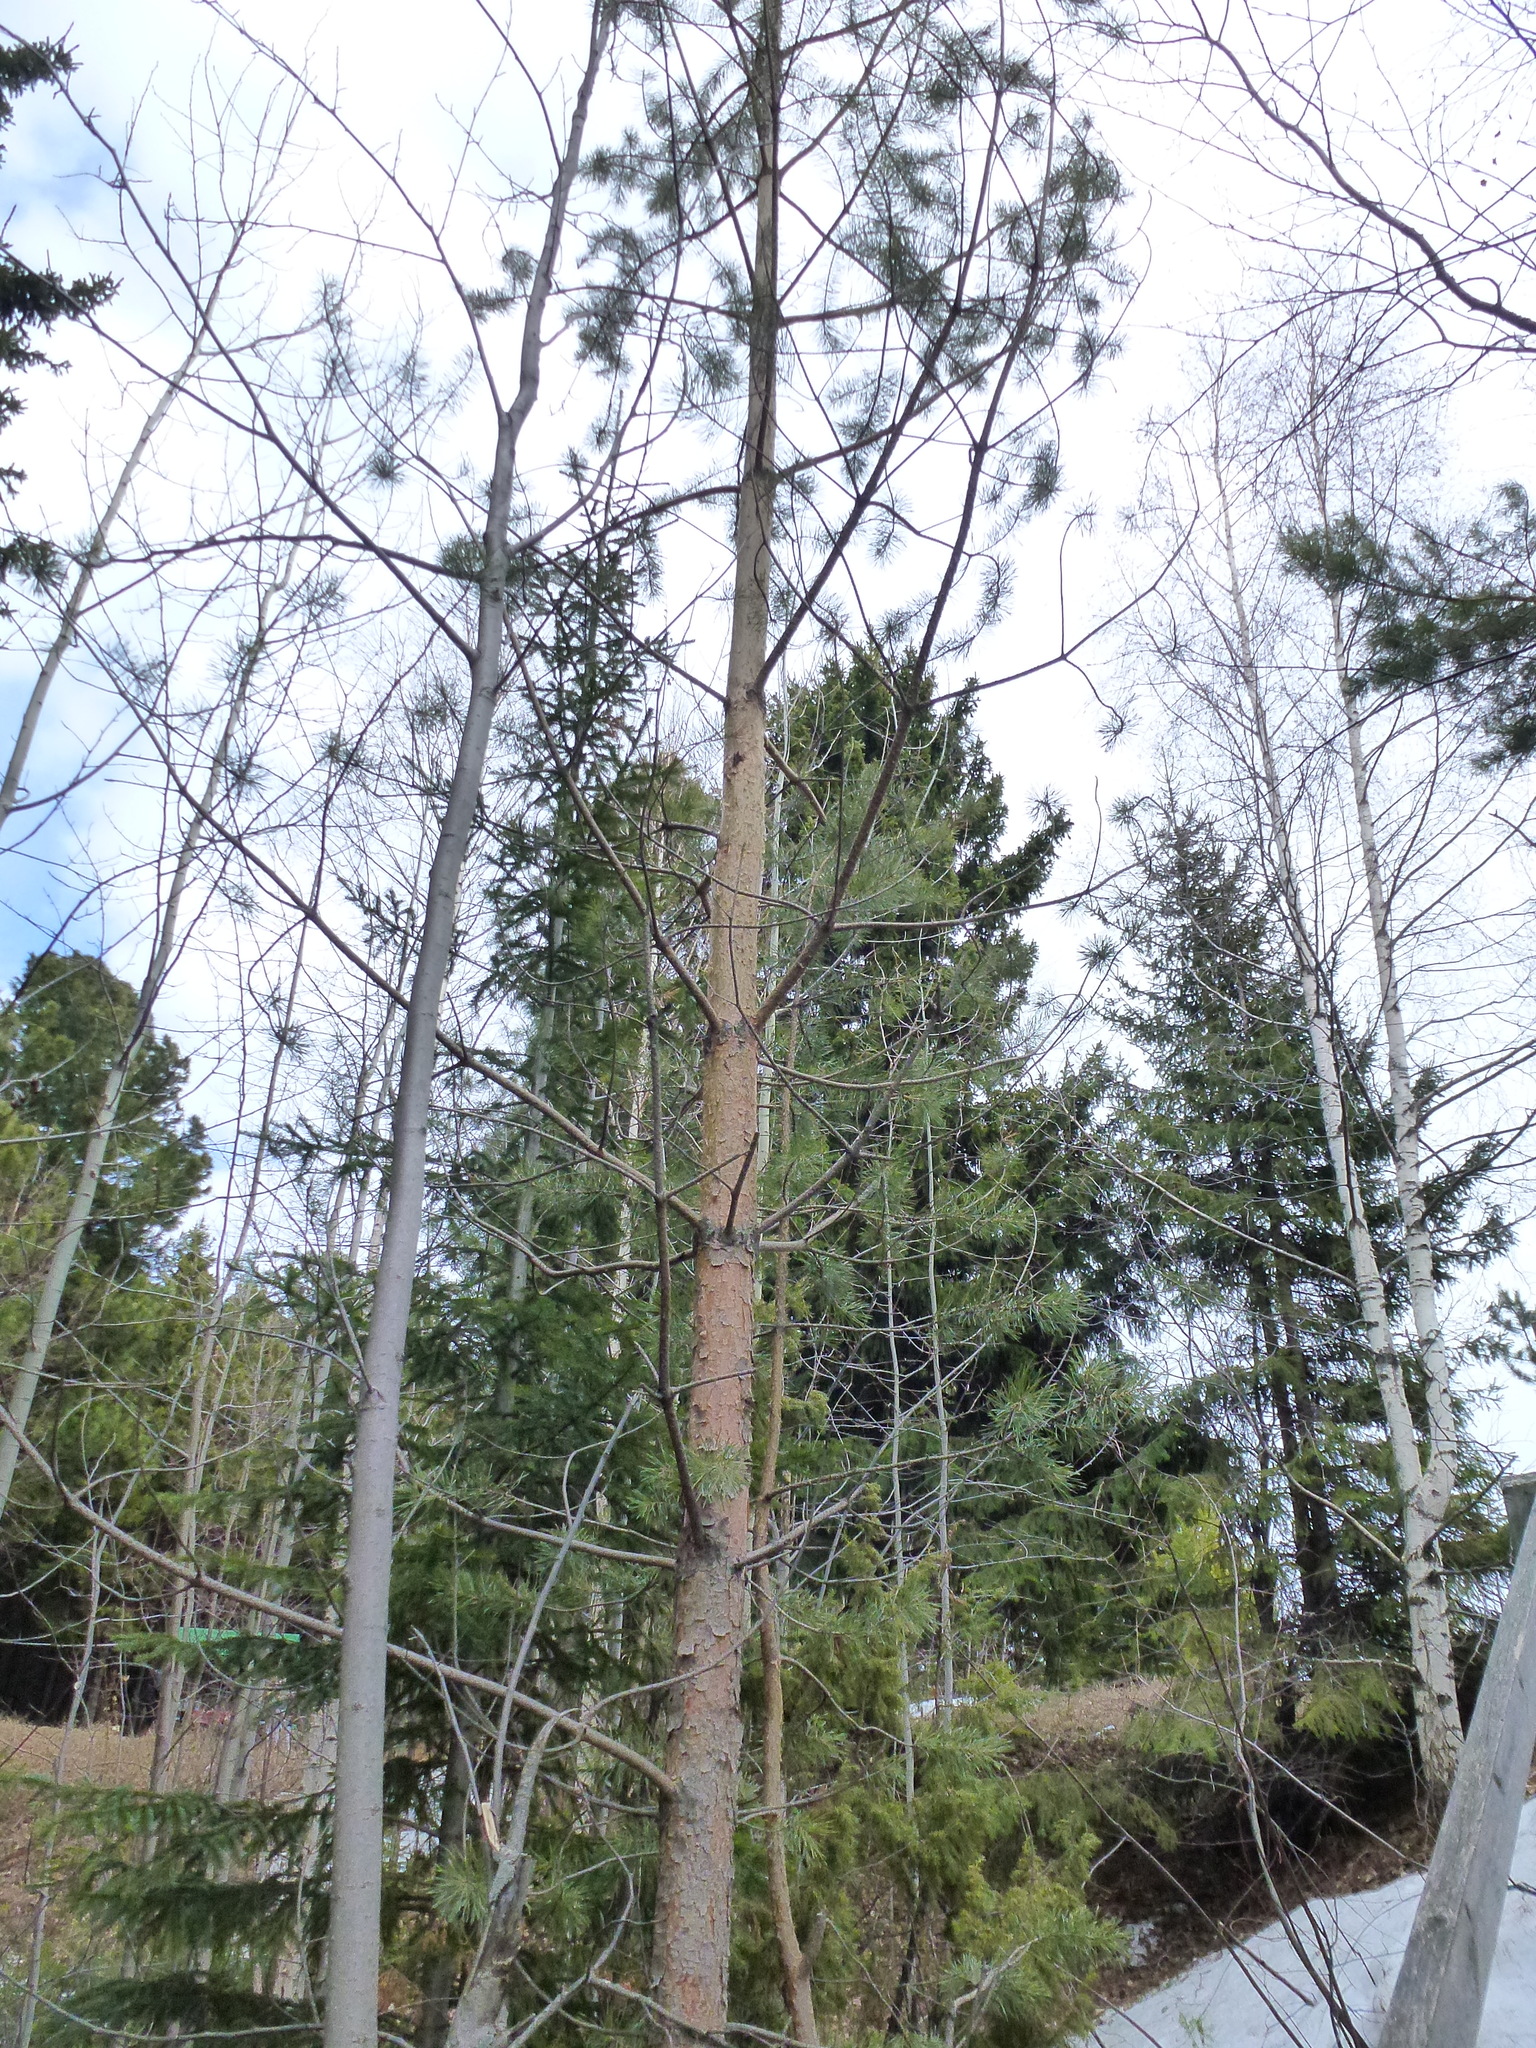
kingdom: Plantae
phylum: Tracheophyta
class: Pinopsida
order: Pinales
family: Pinaceae
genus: Pinus
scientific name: Pinus sylvestris
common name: Scots pine
